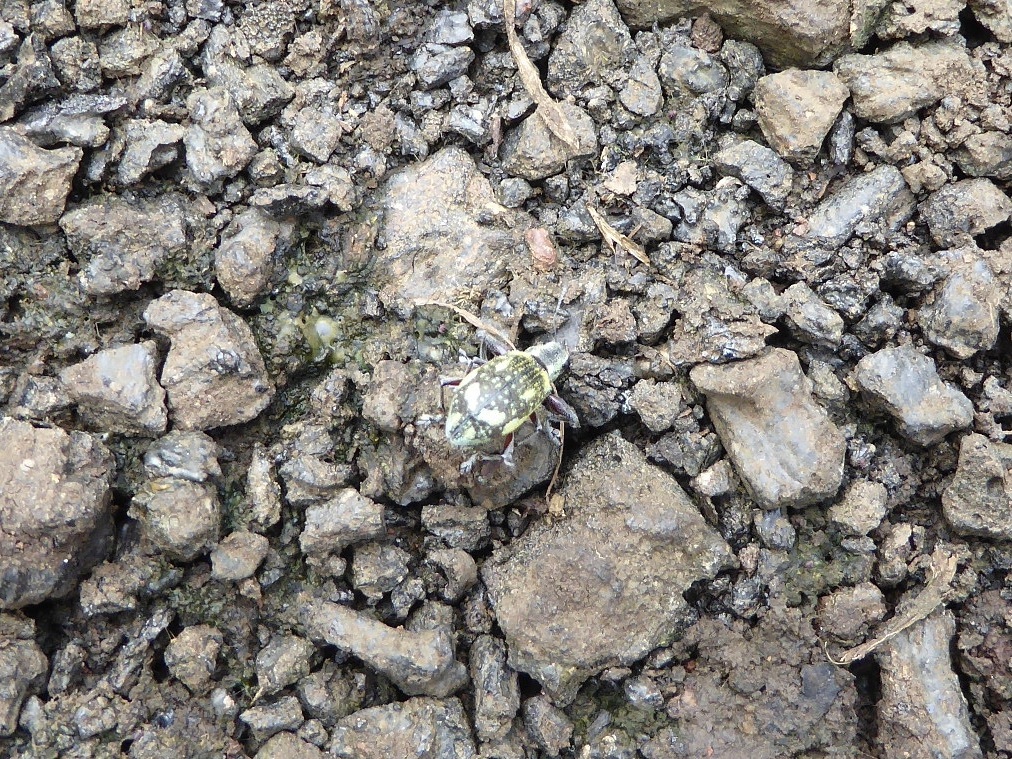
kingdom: Animalia
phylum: Arthropoda
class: Insecta
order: Coleoptera
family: Curculionidae
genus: Galapaganus
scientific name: Galapaganus howdenae
